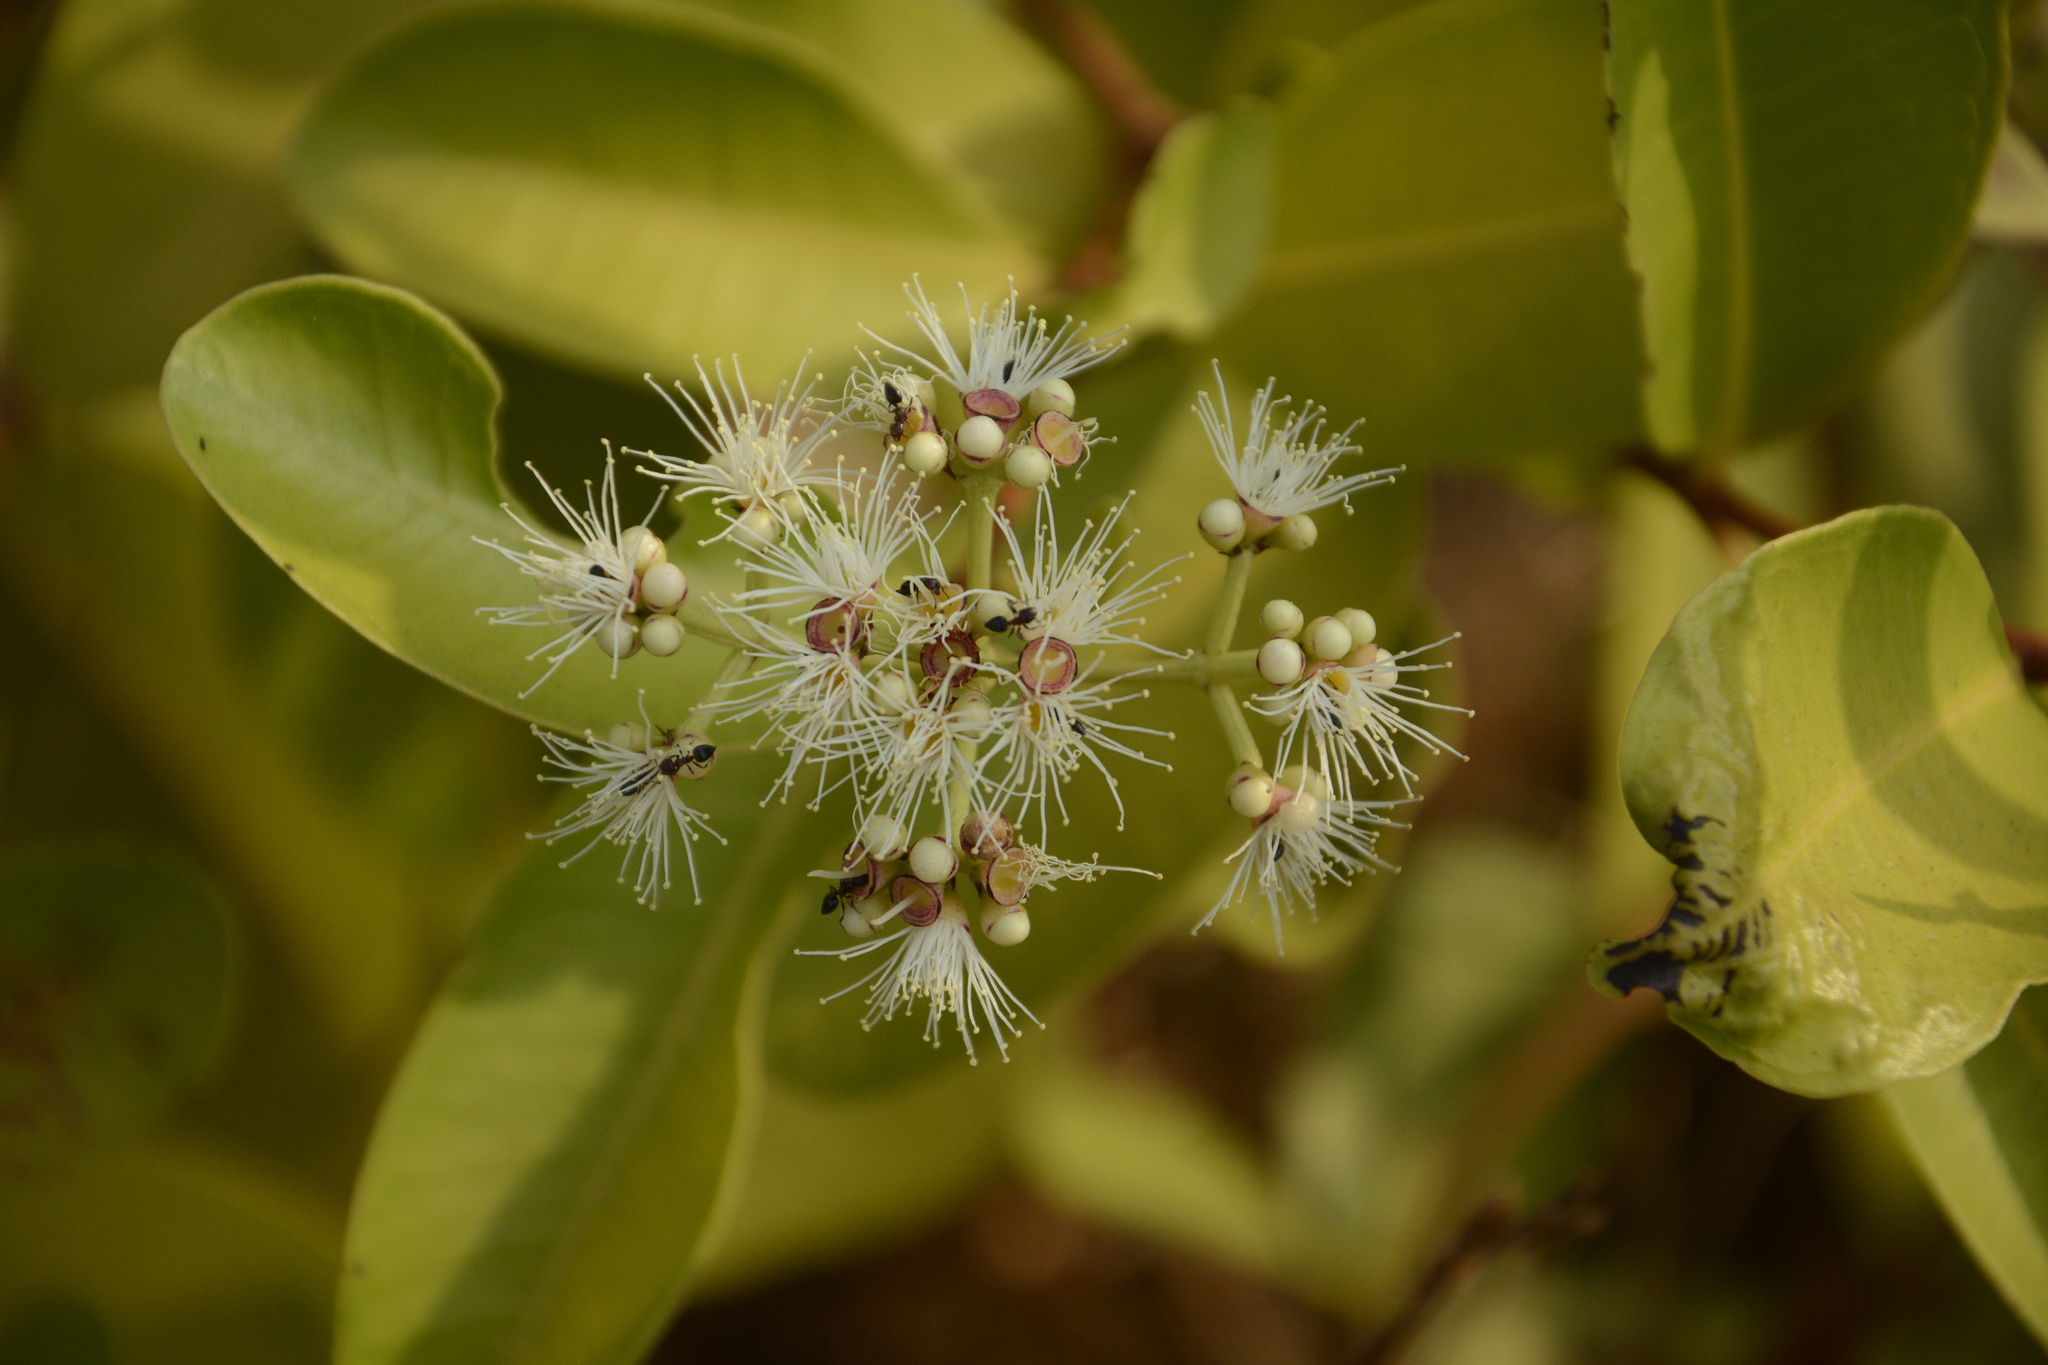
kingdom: Plantae
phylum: Tracheophyta
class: Magnoliopsida
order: Myrtales
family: Myrtaceae
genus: Syzygium
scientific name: Syzygium calophyllifolium
